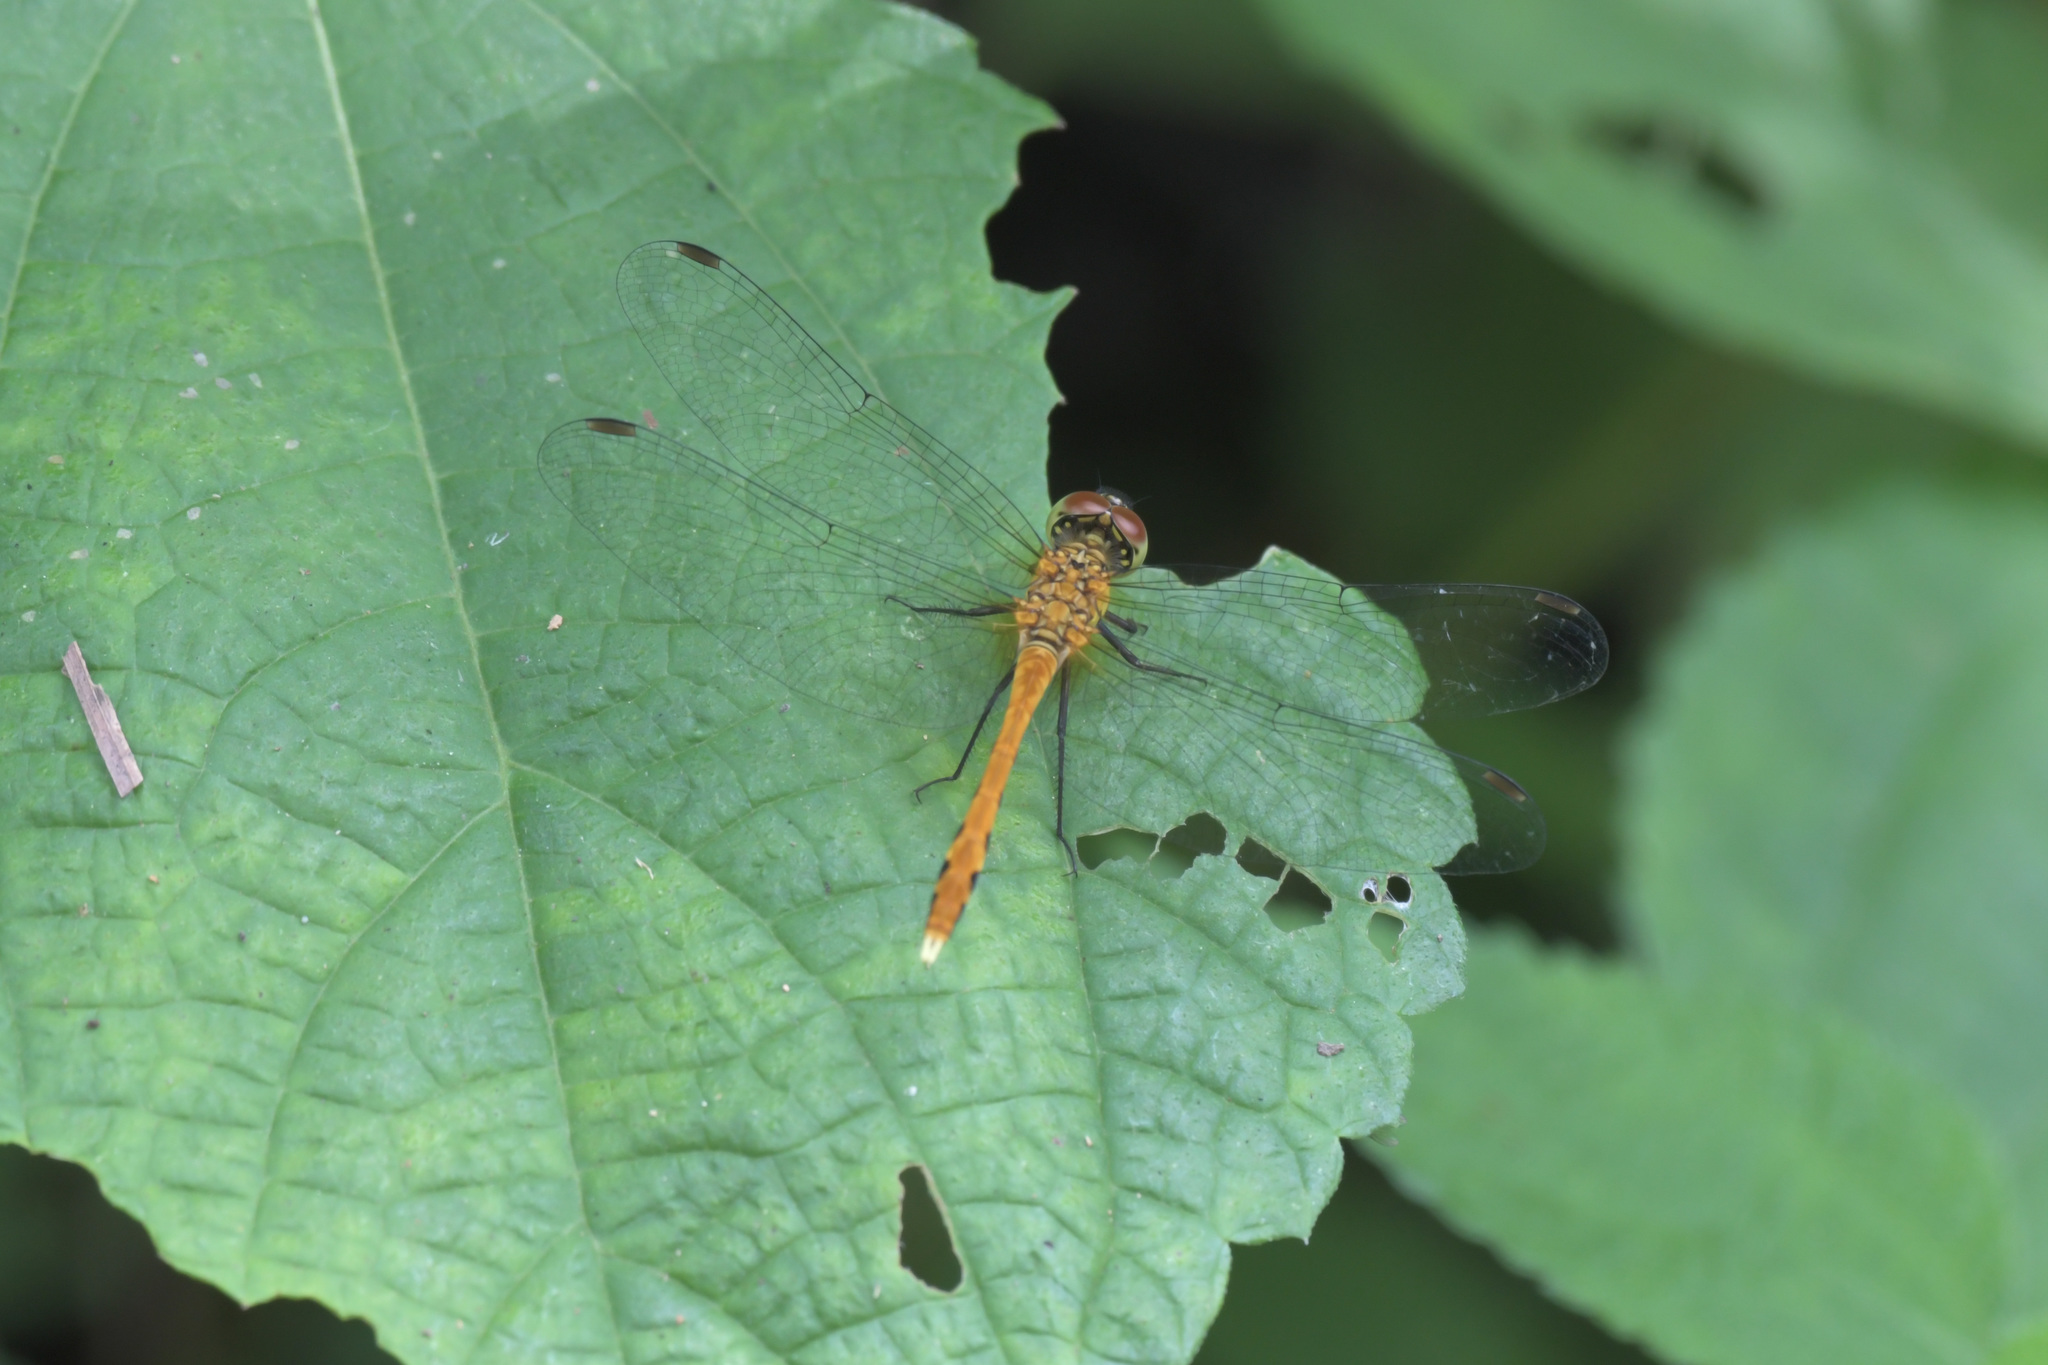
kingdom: Animalia
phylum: Arthropoda
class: Insecta
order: Odonata
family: Libellulidae
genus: Sympetrum
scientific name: Sympetrum eroticum
